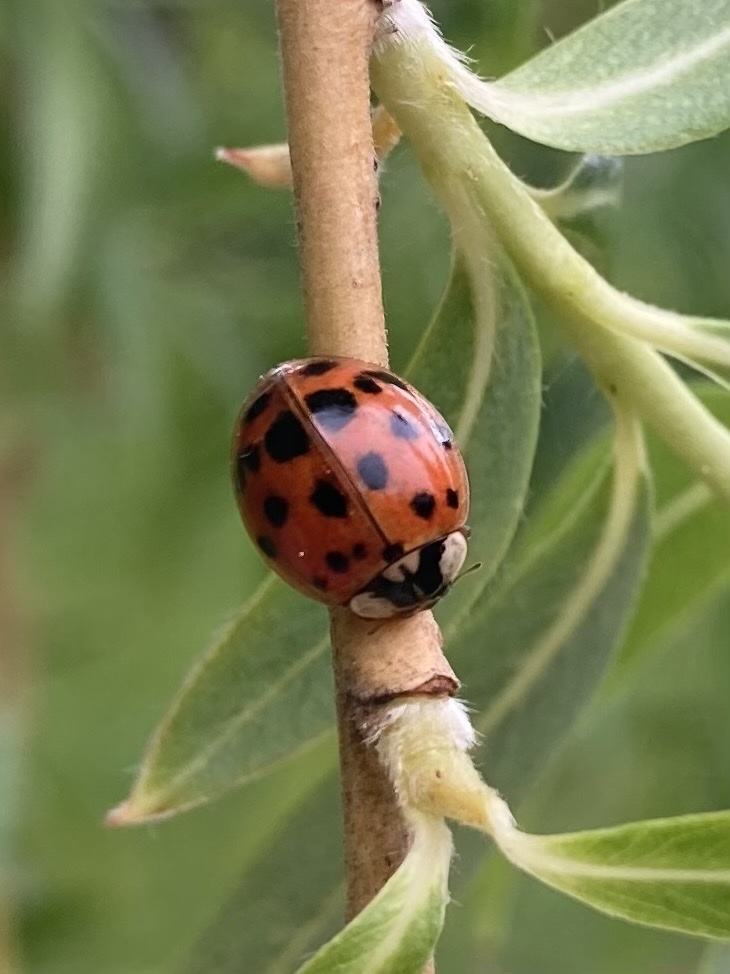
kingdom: Animalia
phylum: Arthropoda
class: Insecta
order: Coleoptera
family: Coccinellidae
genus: Harmonia
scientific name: Harmonia axyridis
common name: Harlequin ladybird
